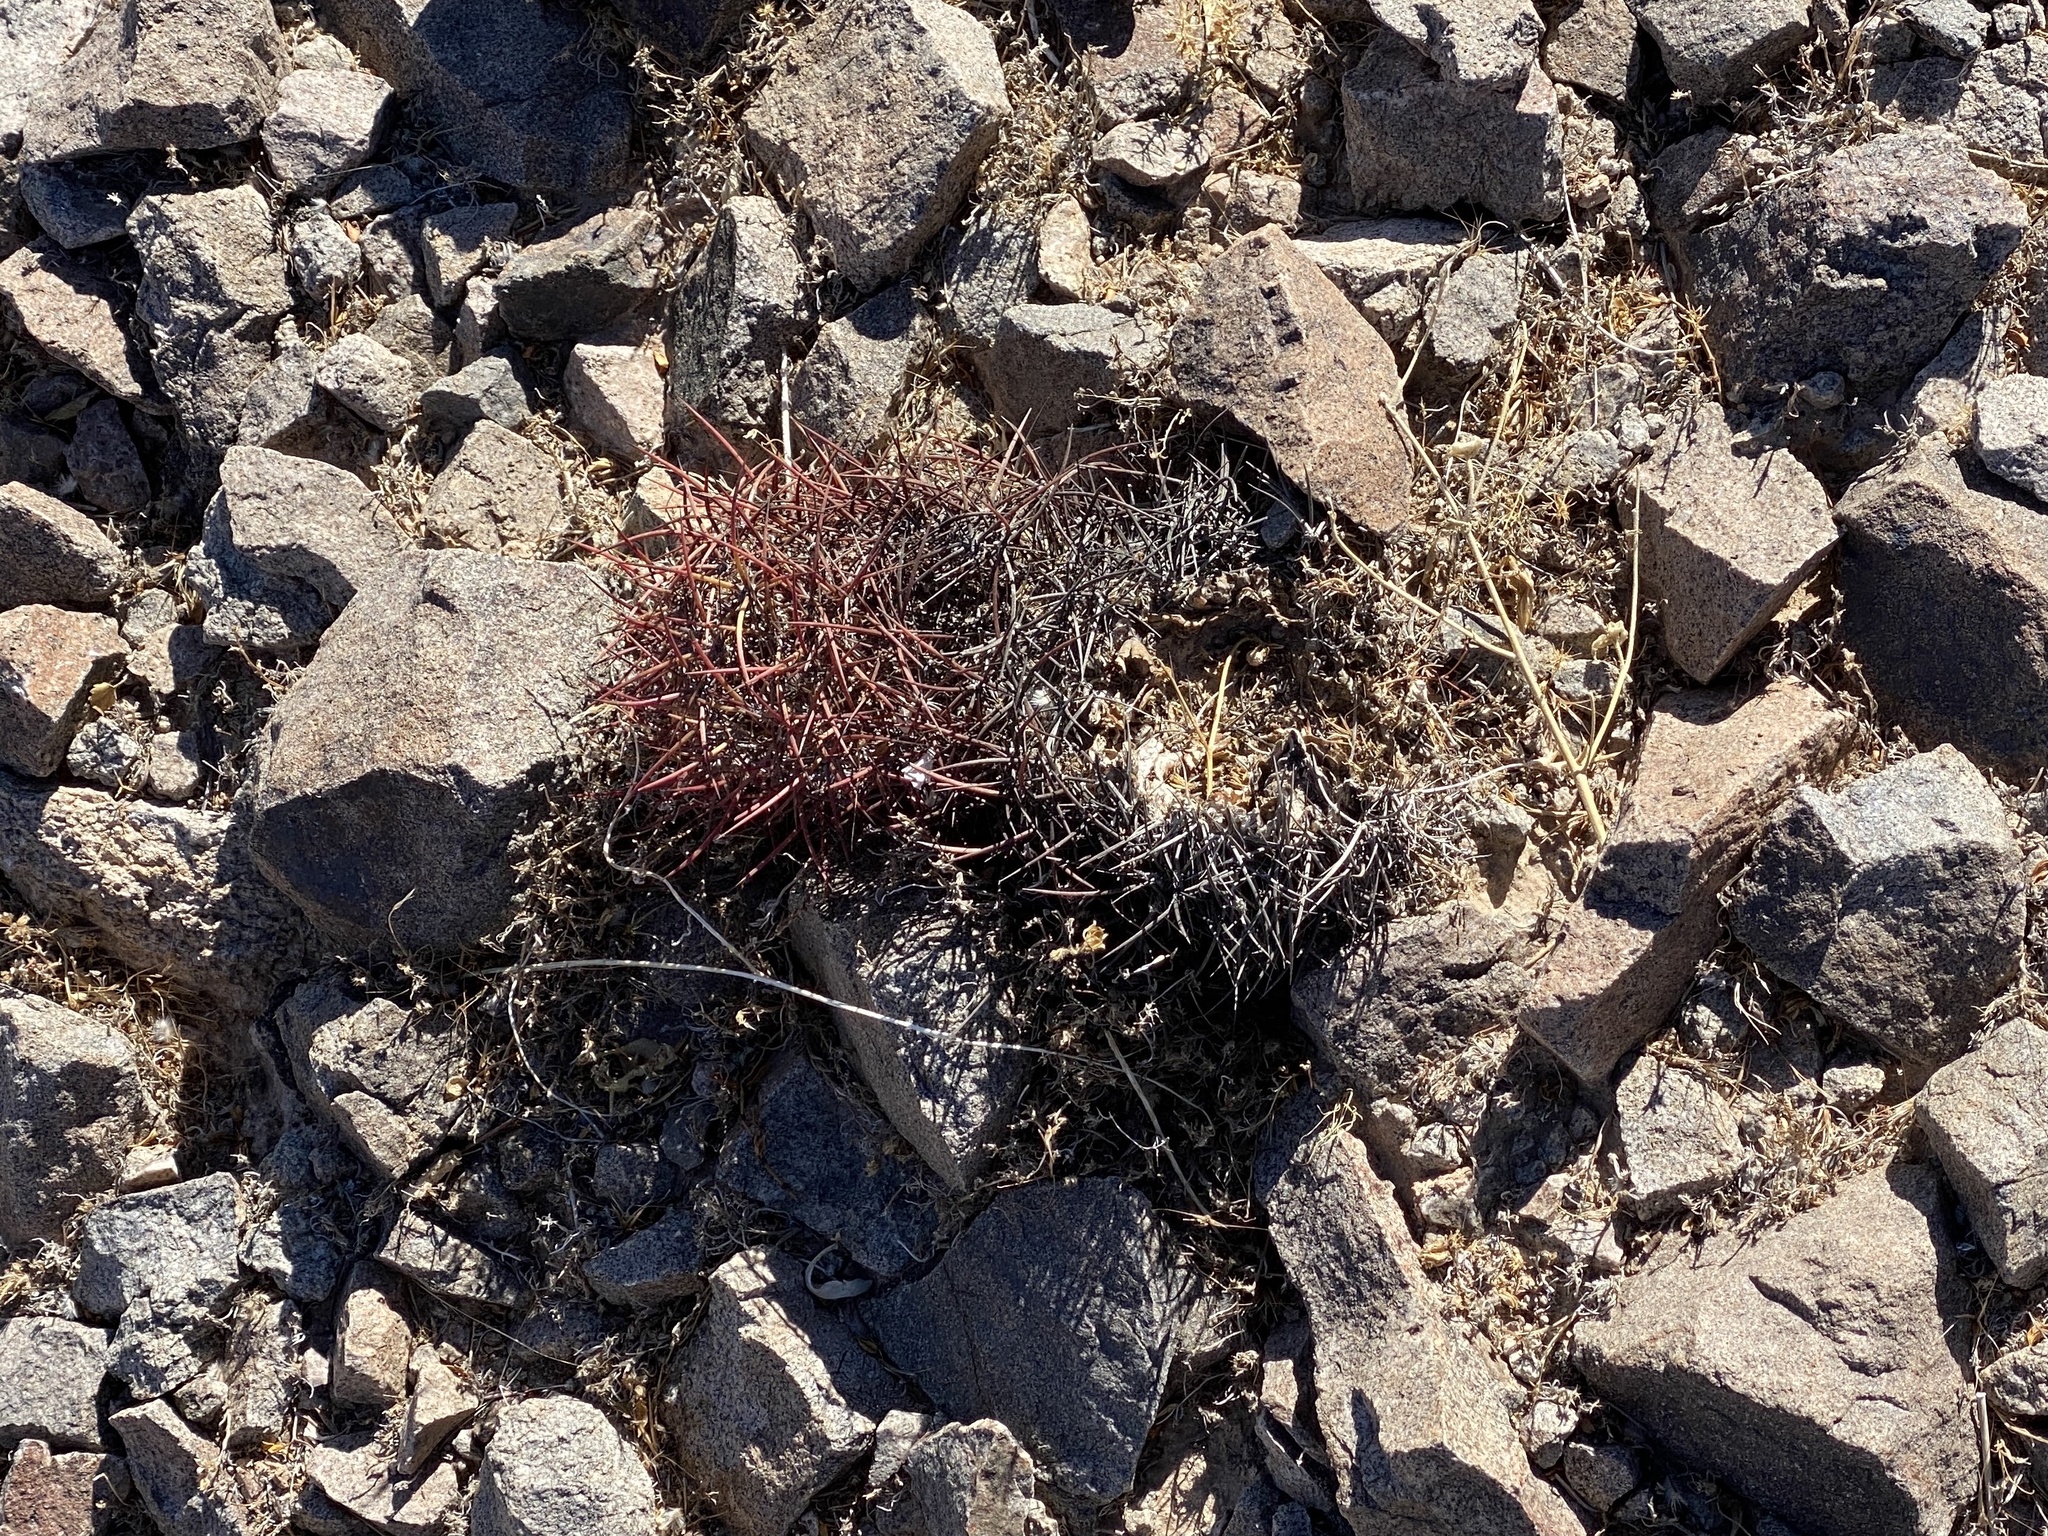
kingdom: Plantae
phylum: Tracheophyta
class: Magnoliopsida
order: Caryophyllales
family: Cactaceae
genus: Sclerocactus
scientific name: Sclerocactus johnsonii
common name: Eight-spine fishhook cactus
